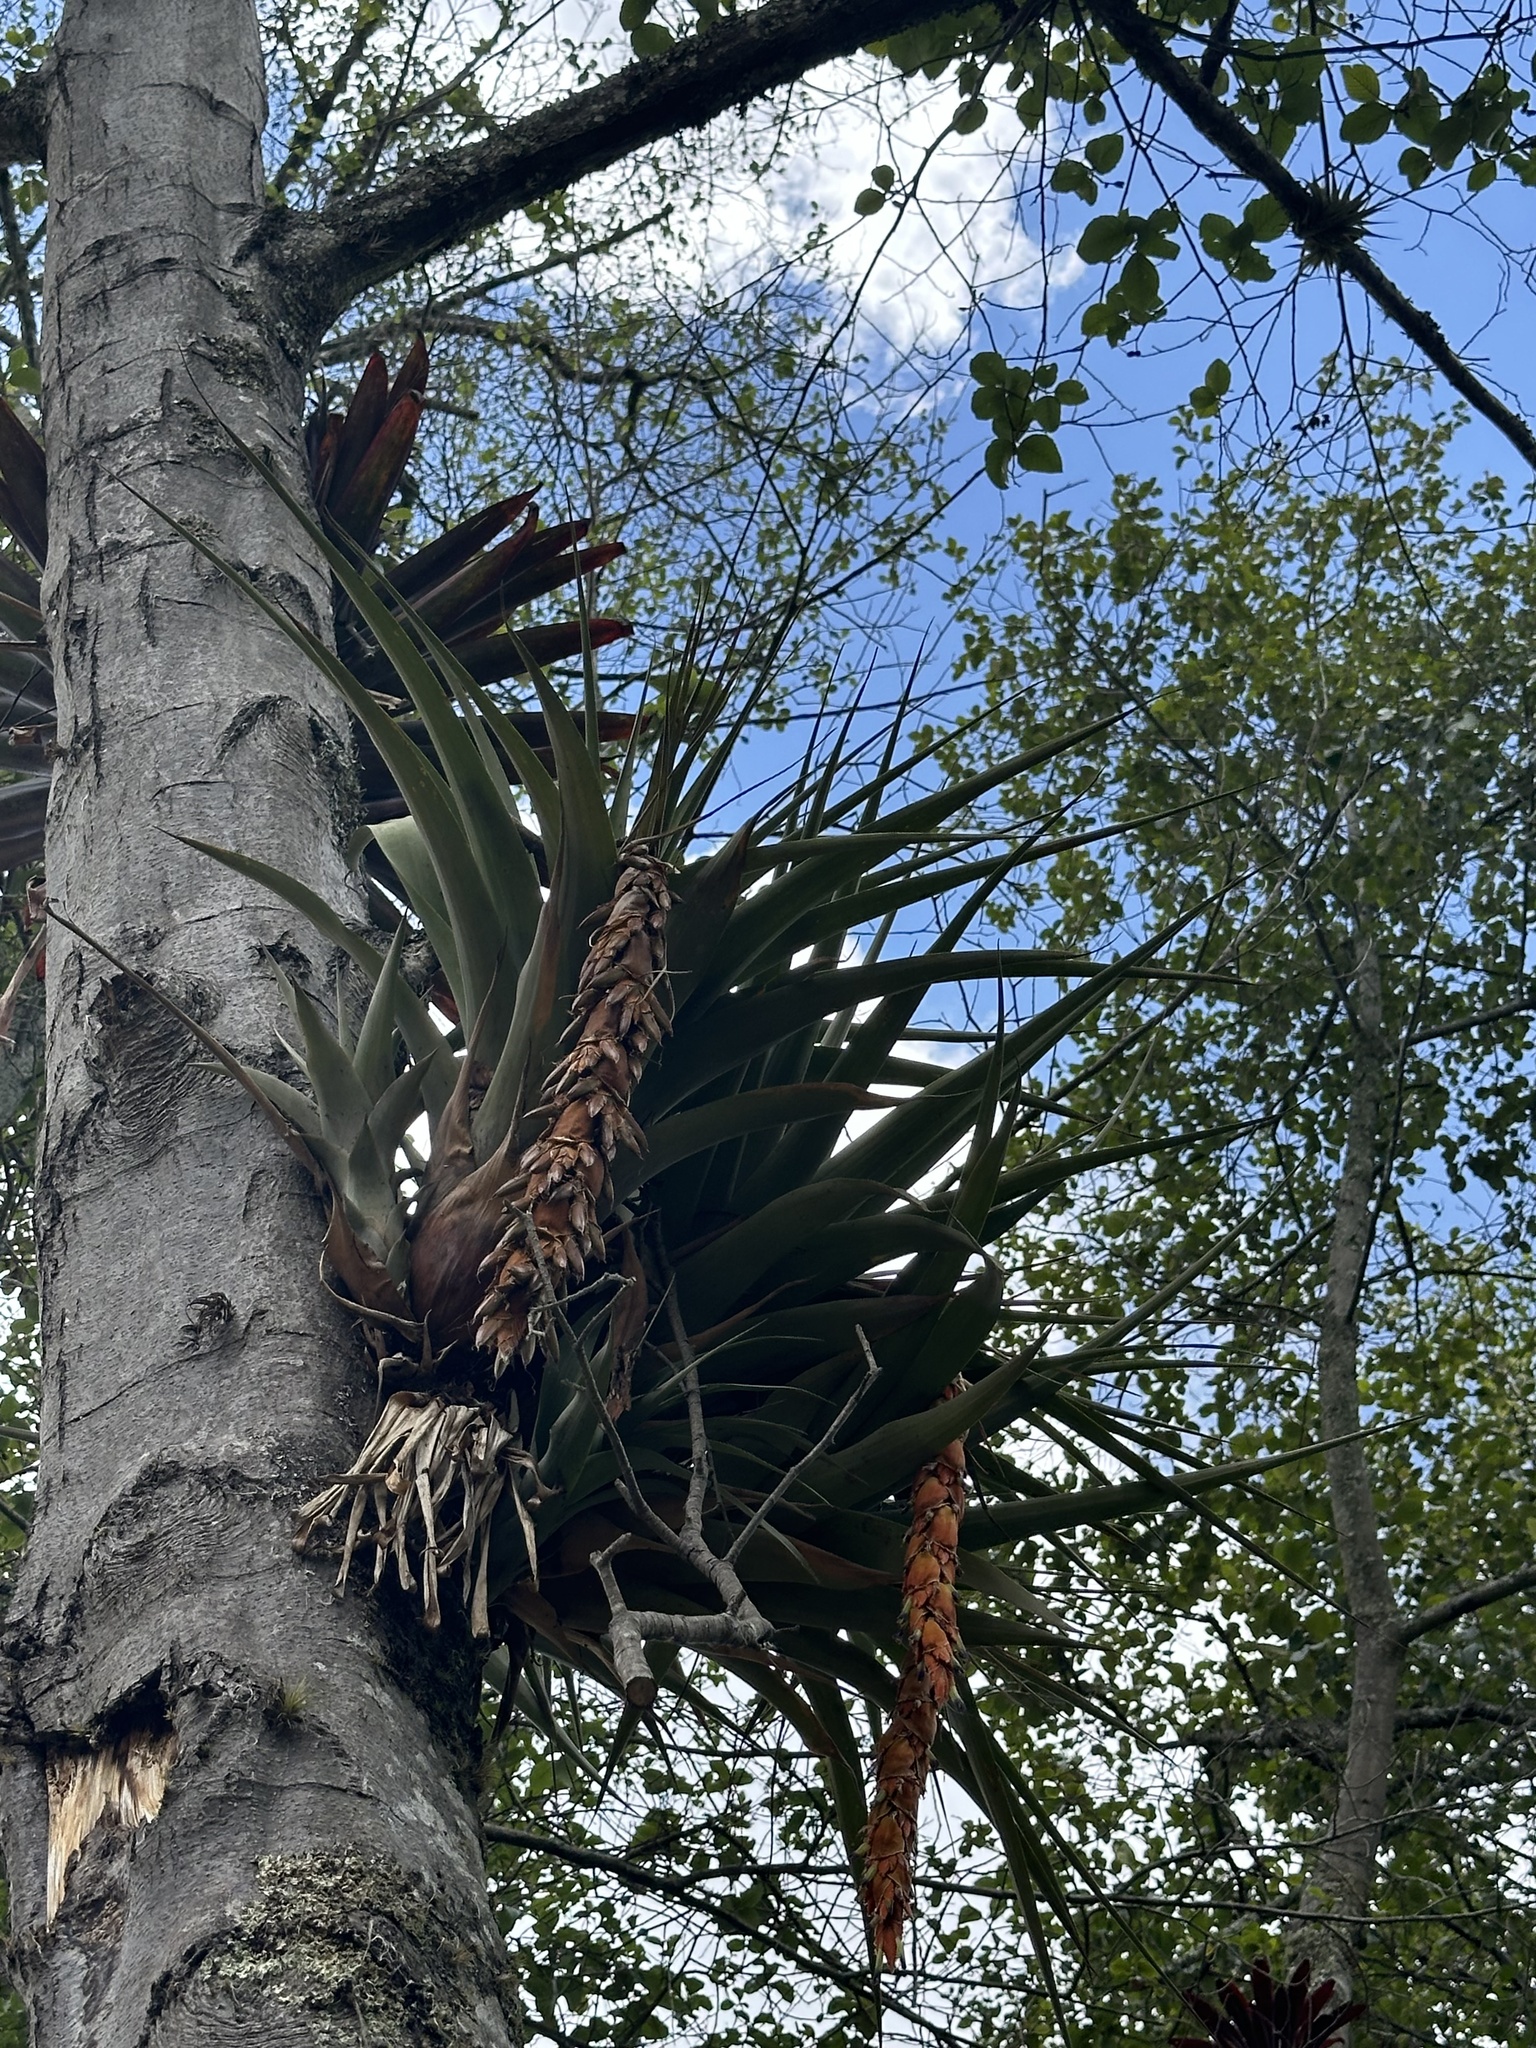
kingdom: Plantae
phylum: Tracheophyta
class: Liliopsida
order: Poales
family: Bromeliaceae
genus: Vriesea
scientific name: Vriesea tequendamae
